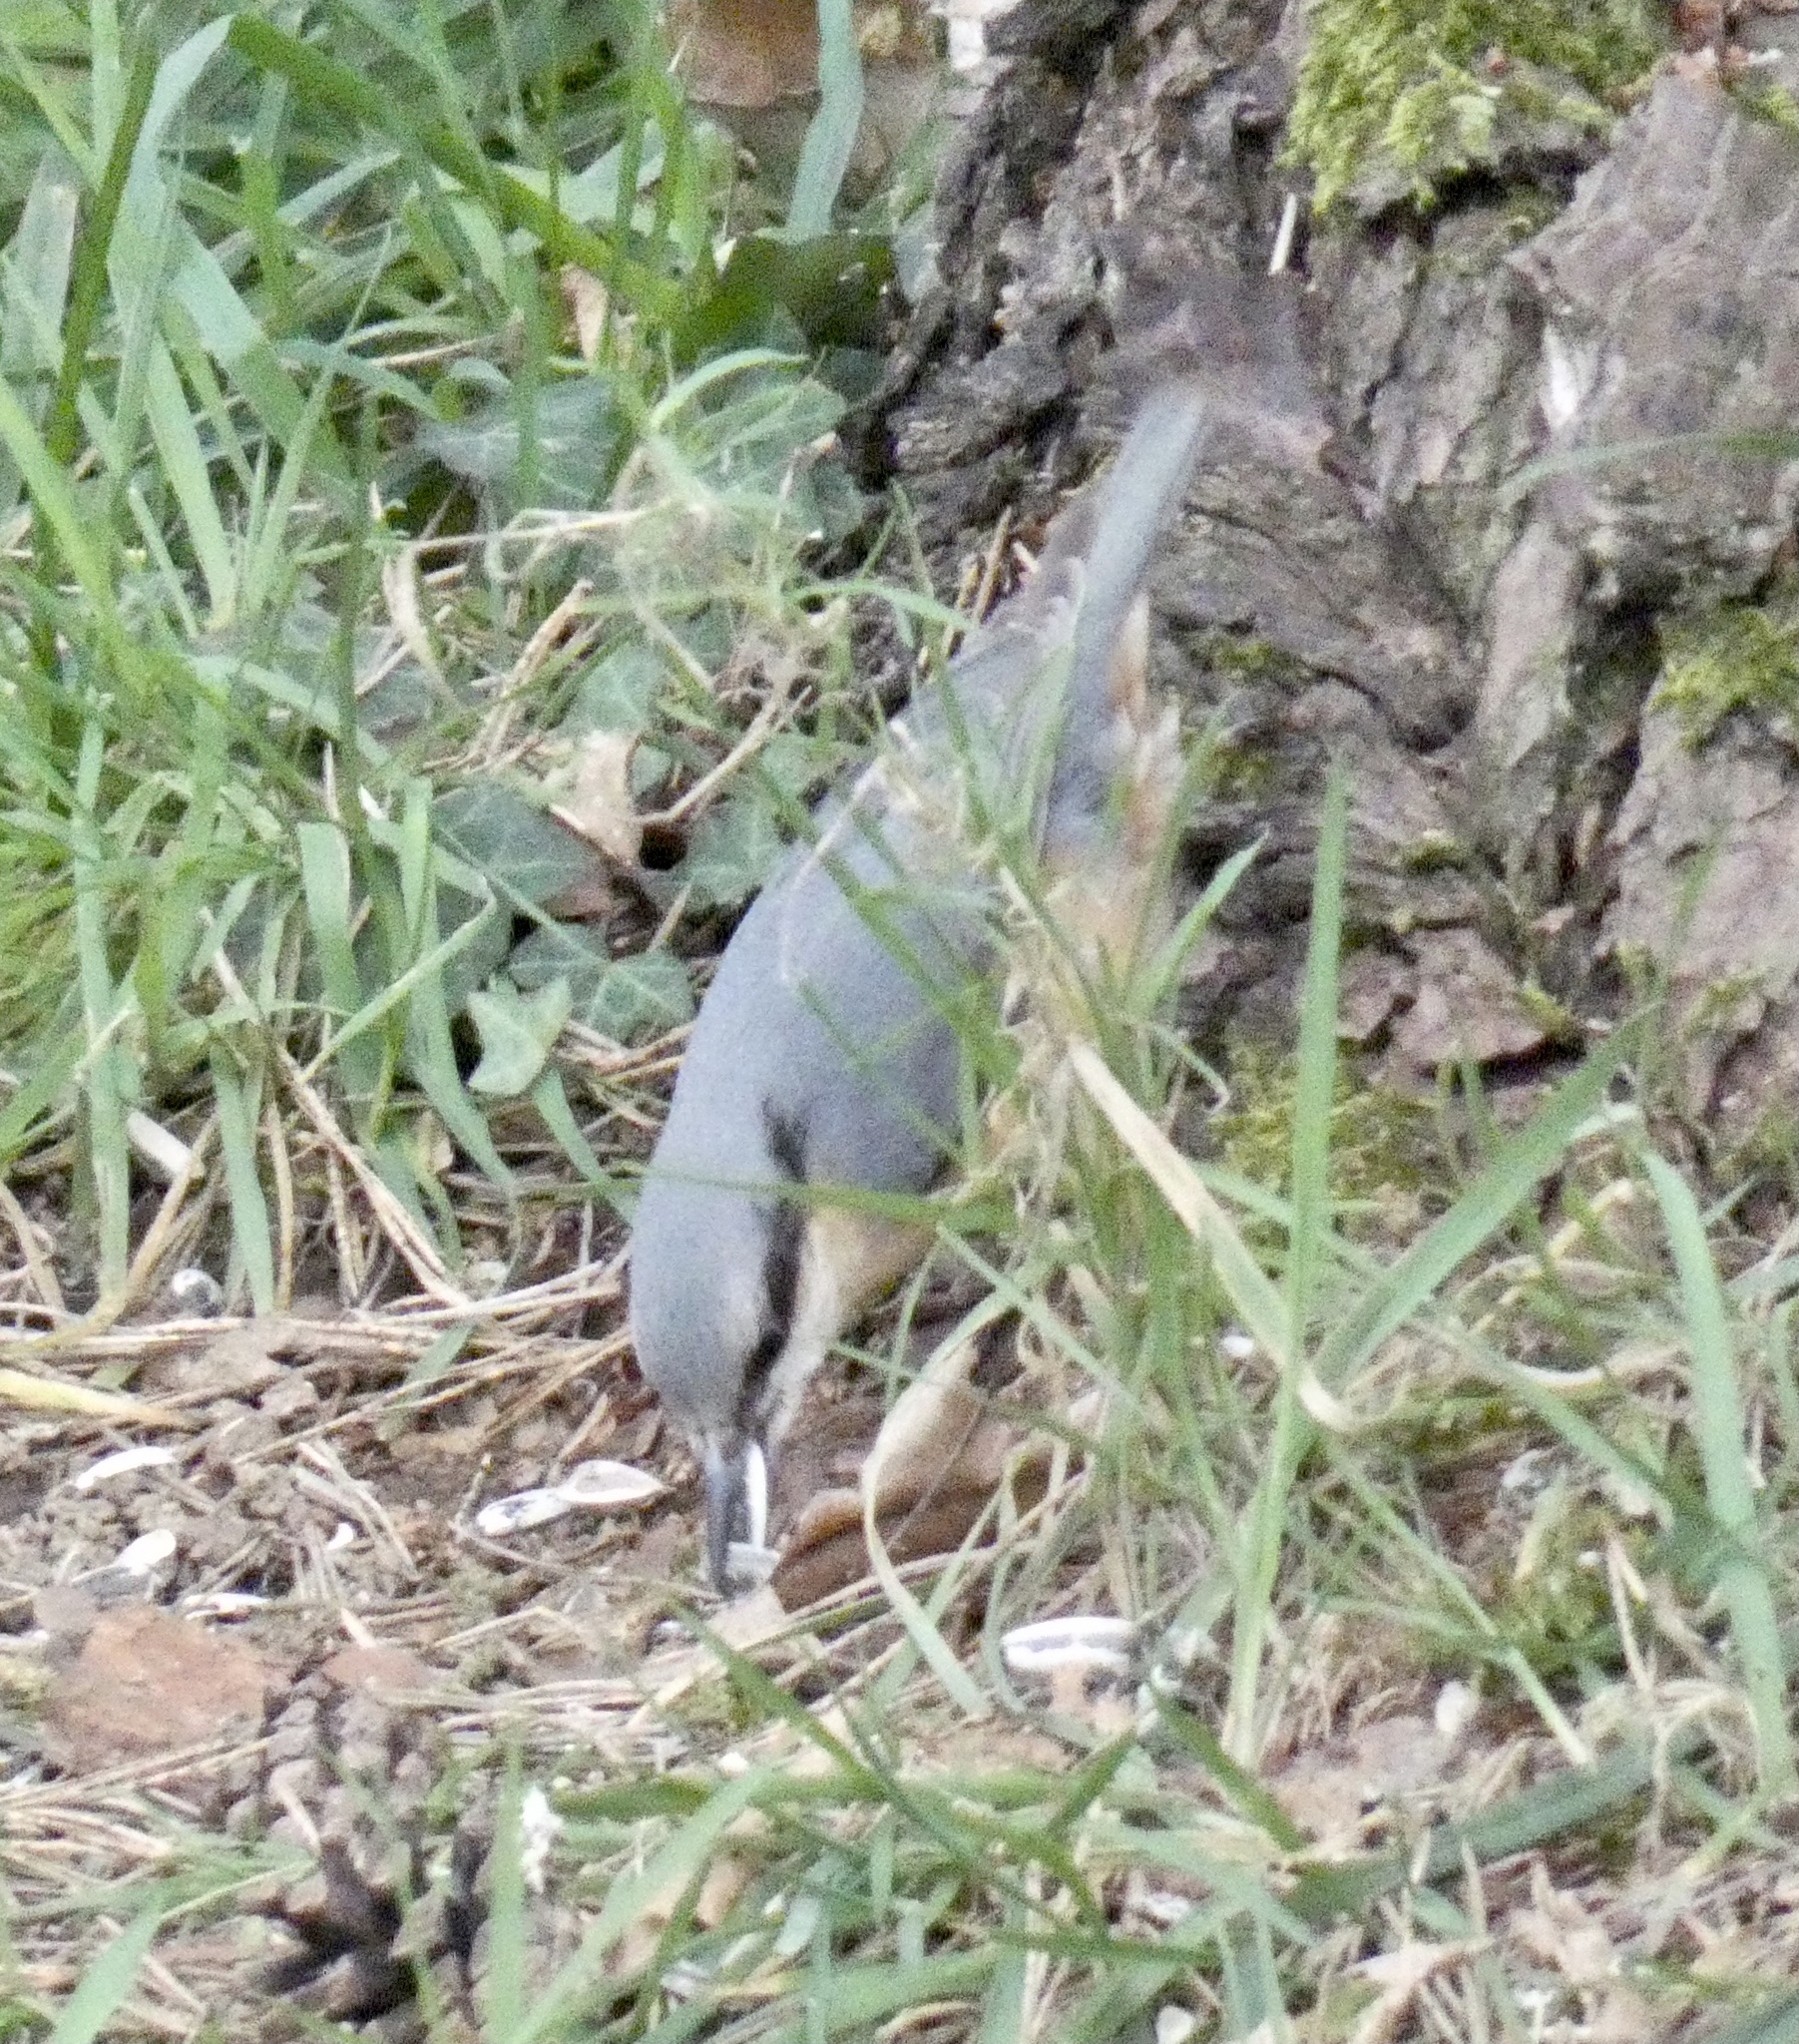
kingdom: Animalia
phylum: Chordata
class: Aves
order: Passeriformes
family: Sittidae
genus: Sitta
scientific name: Sitta europaea
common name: Eurasian nuthatch
